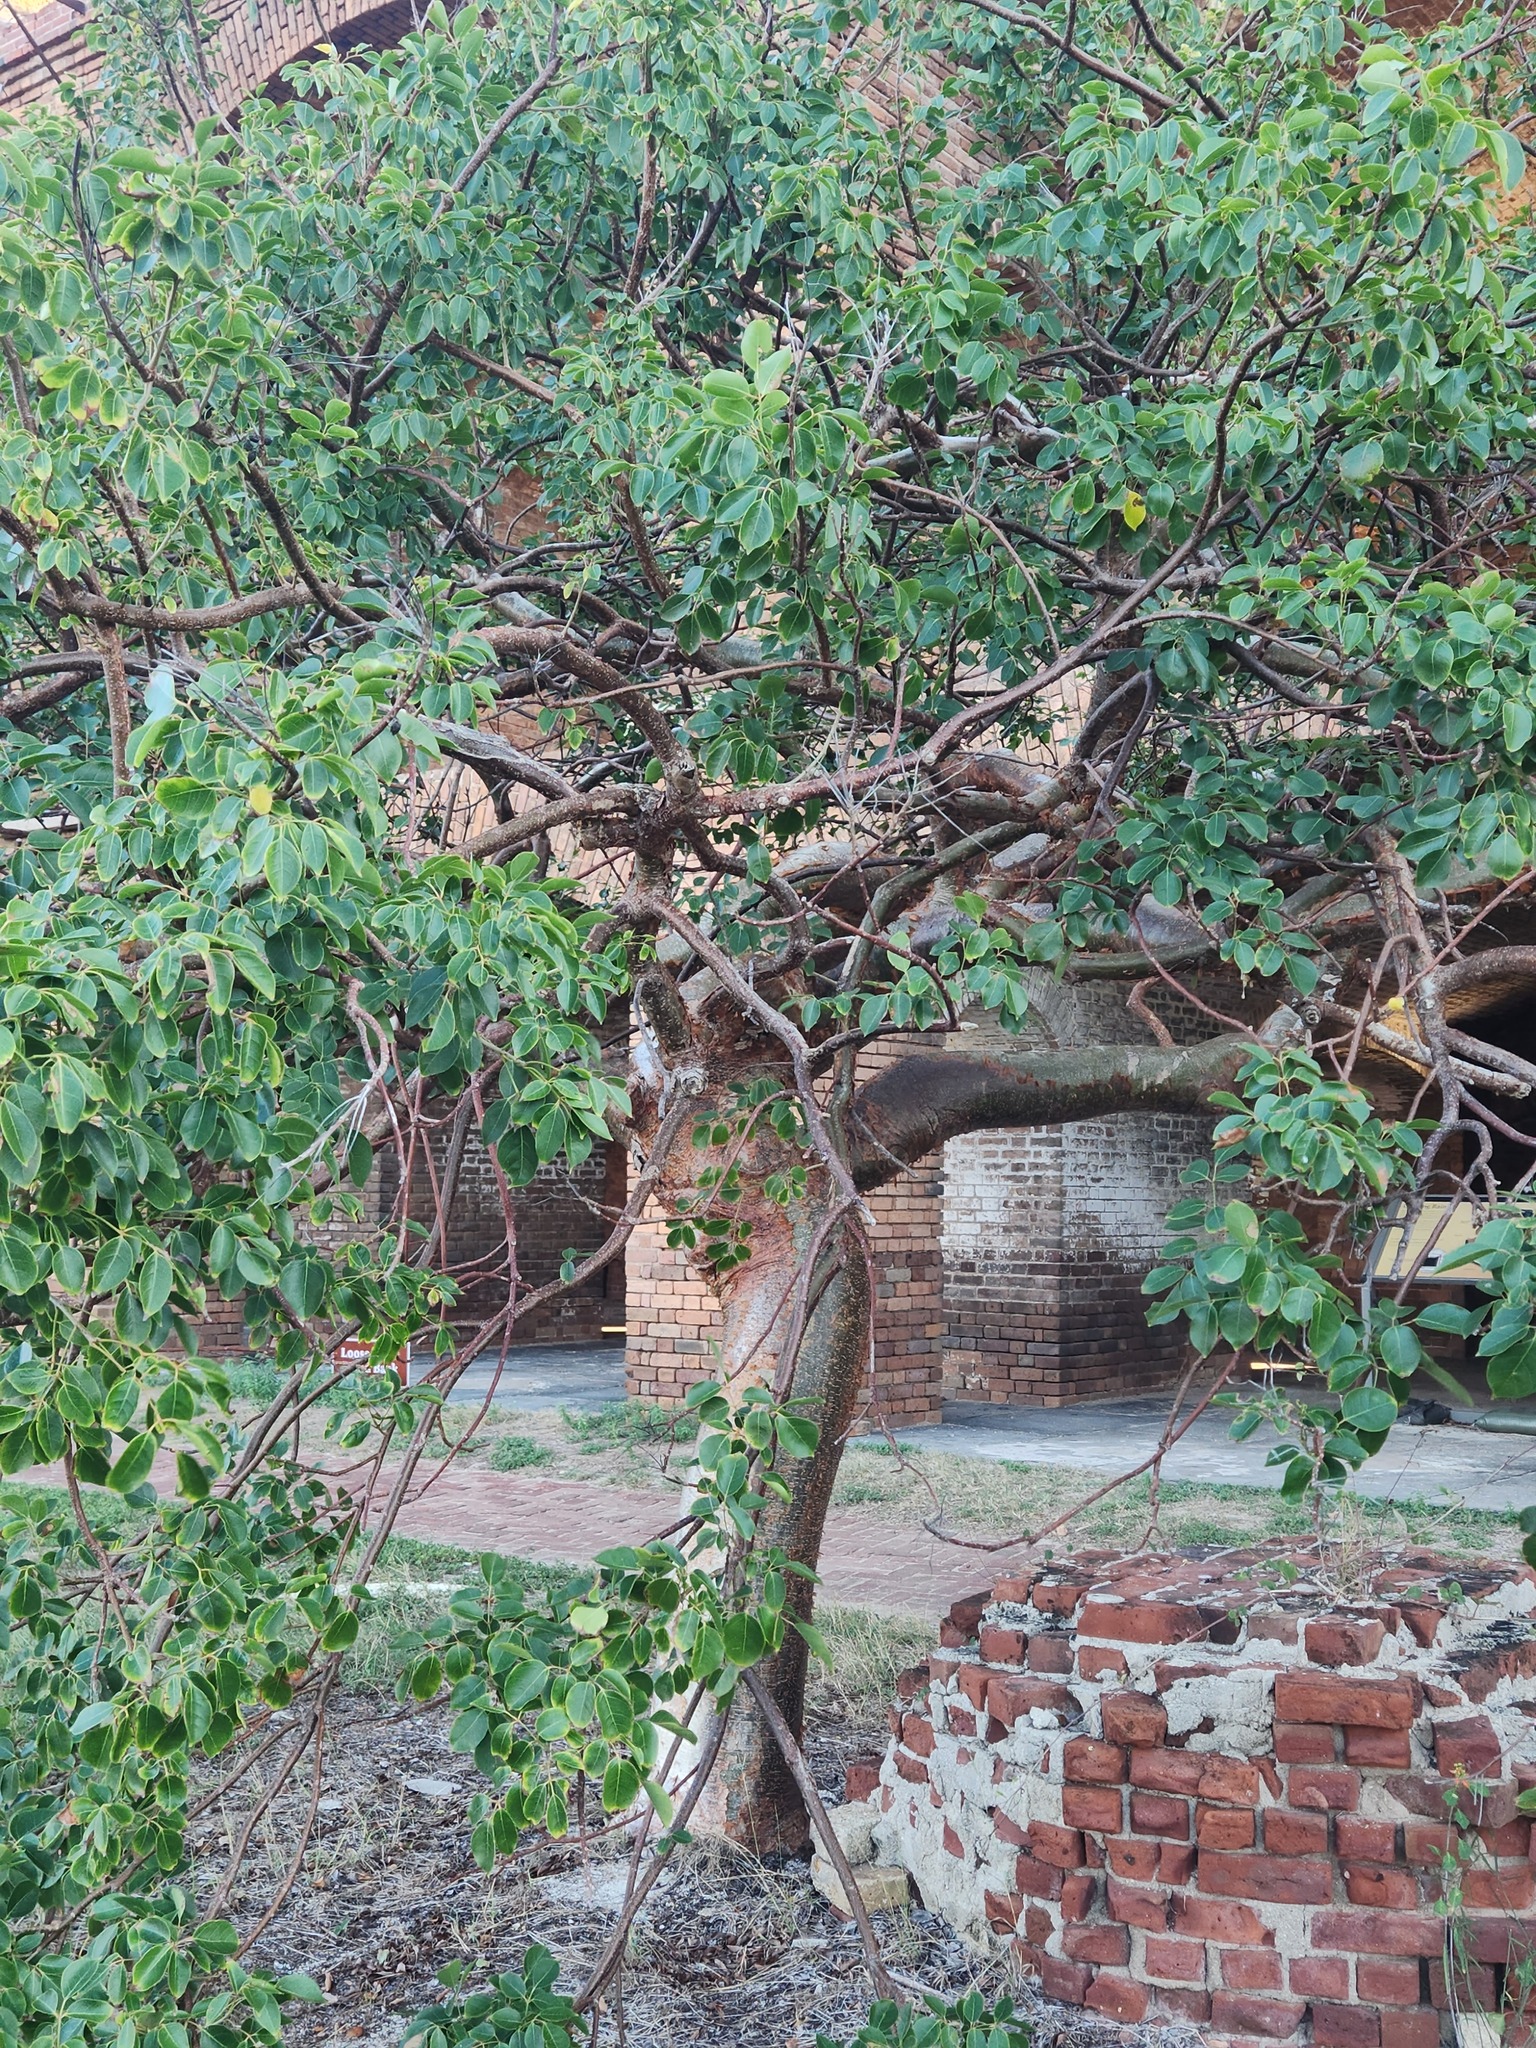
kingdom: Plantae
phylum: Tracheophyta
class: Magnoliopsida
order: Sapindales
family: Burseraceae
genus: Bursera
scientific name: Bursera simaruba
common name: Turpentine tree
